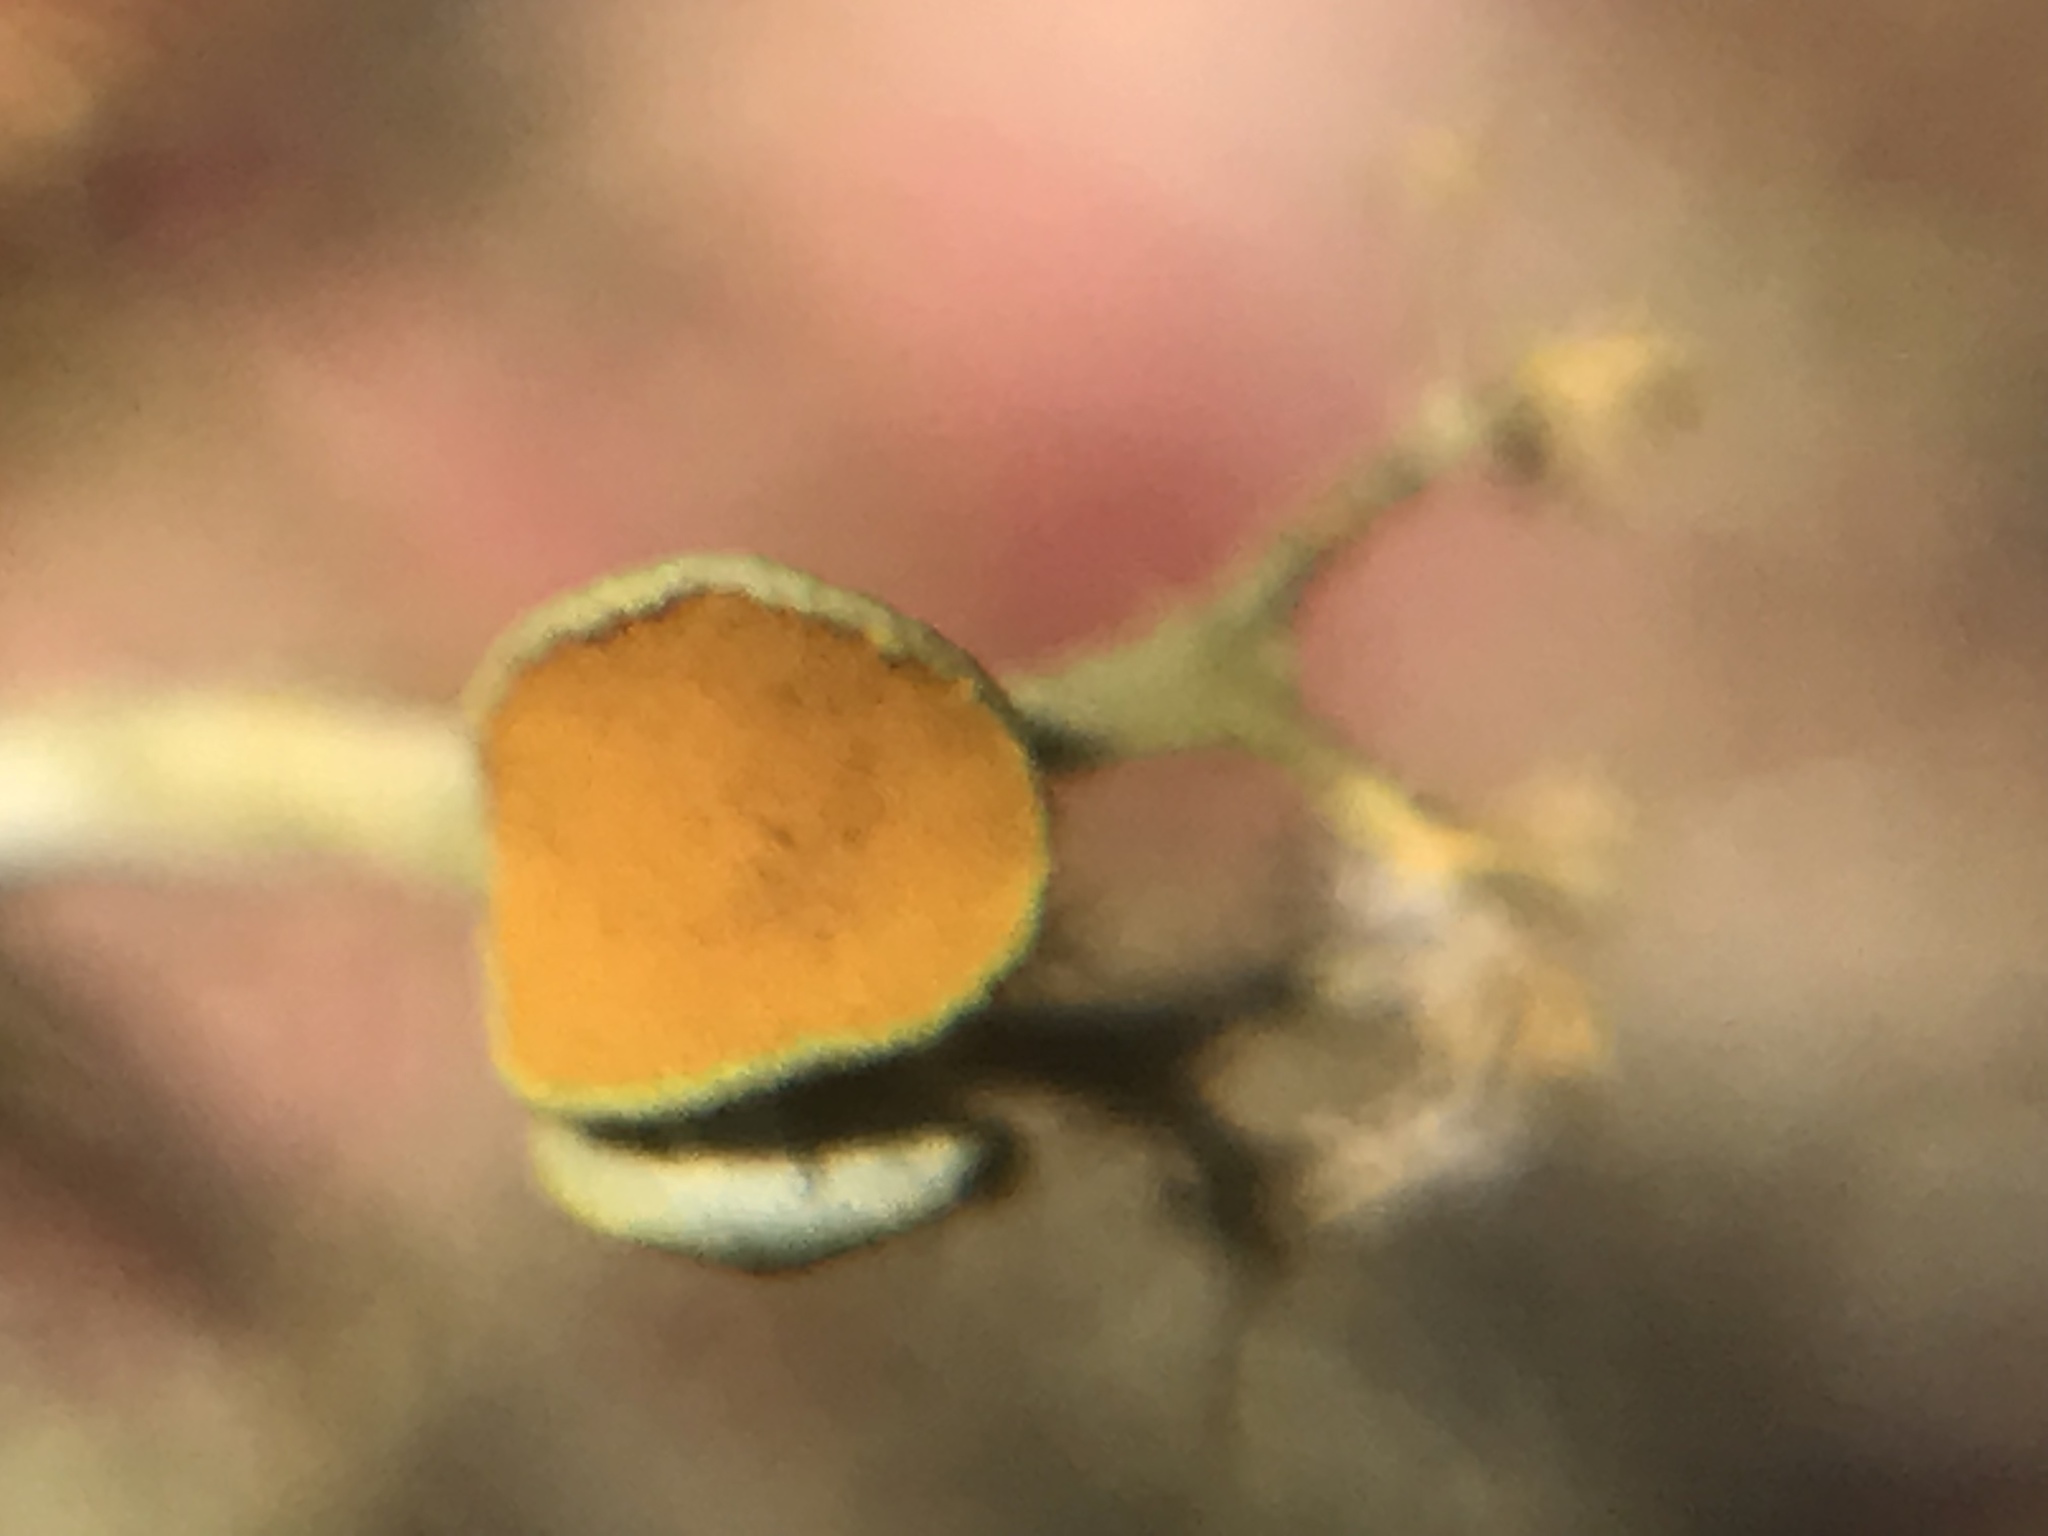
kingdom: Fungi
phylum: Ascomycota
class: Lecanoromycetes
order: Teloschistales
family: Teloschistaceae
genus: Teloschistes
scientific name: Teloschistes exilis
